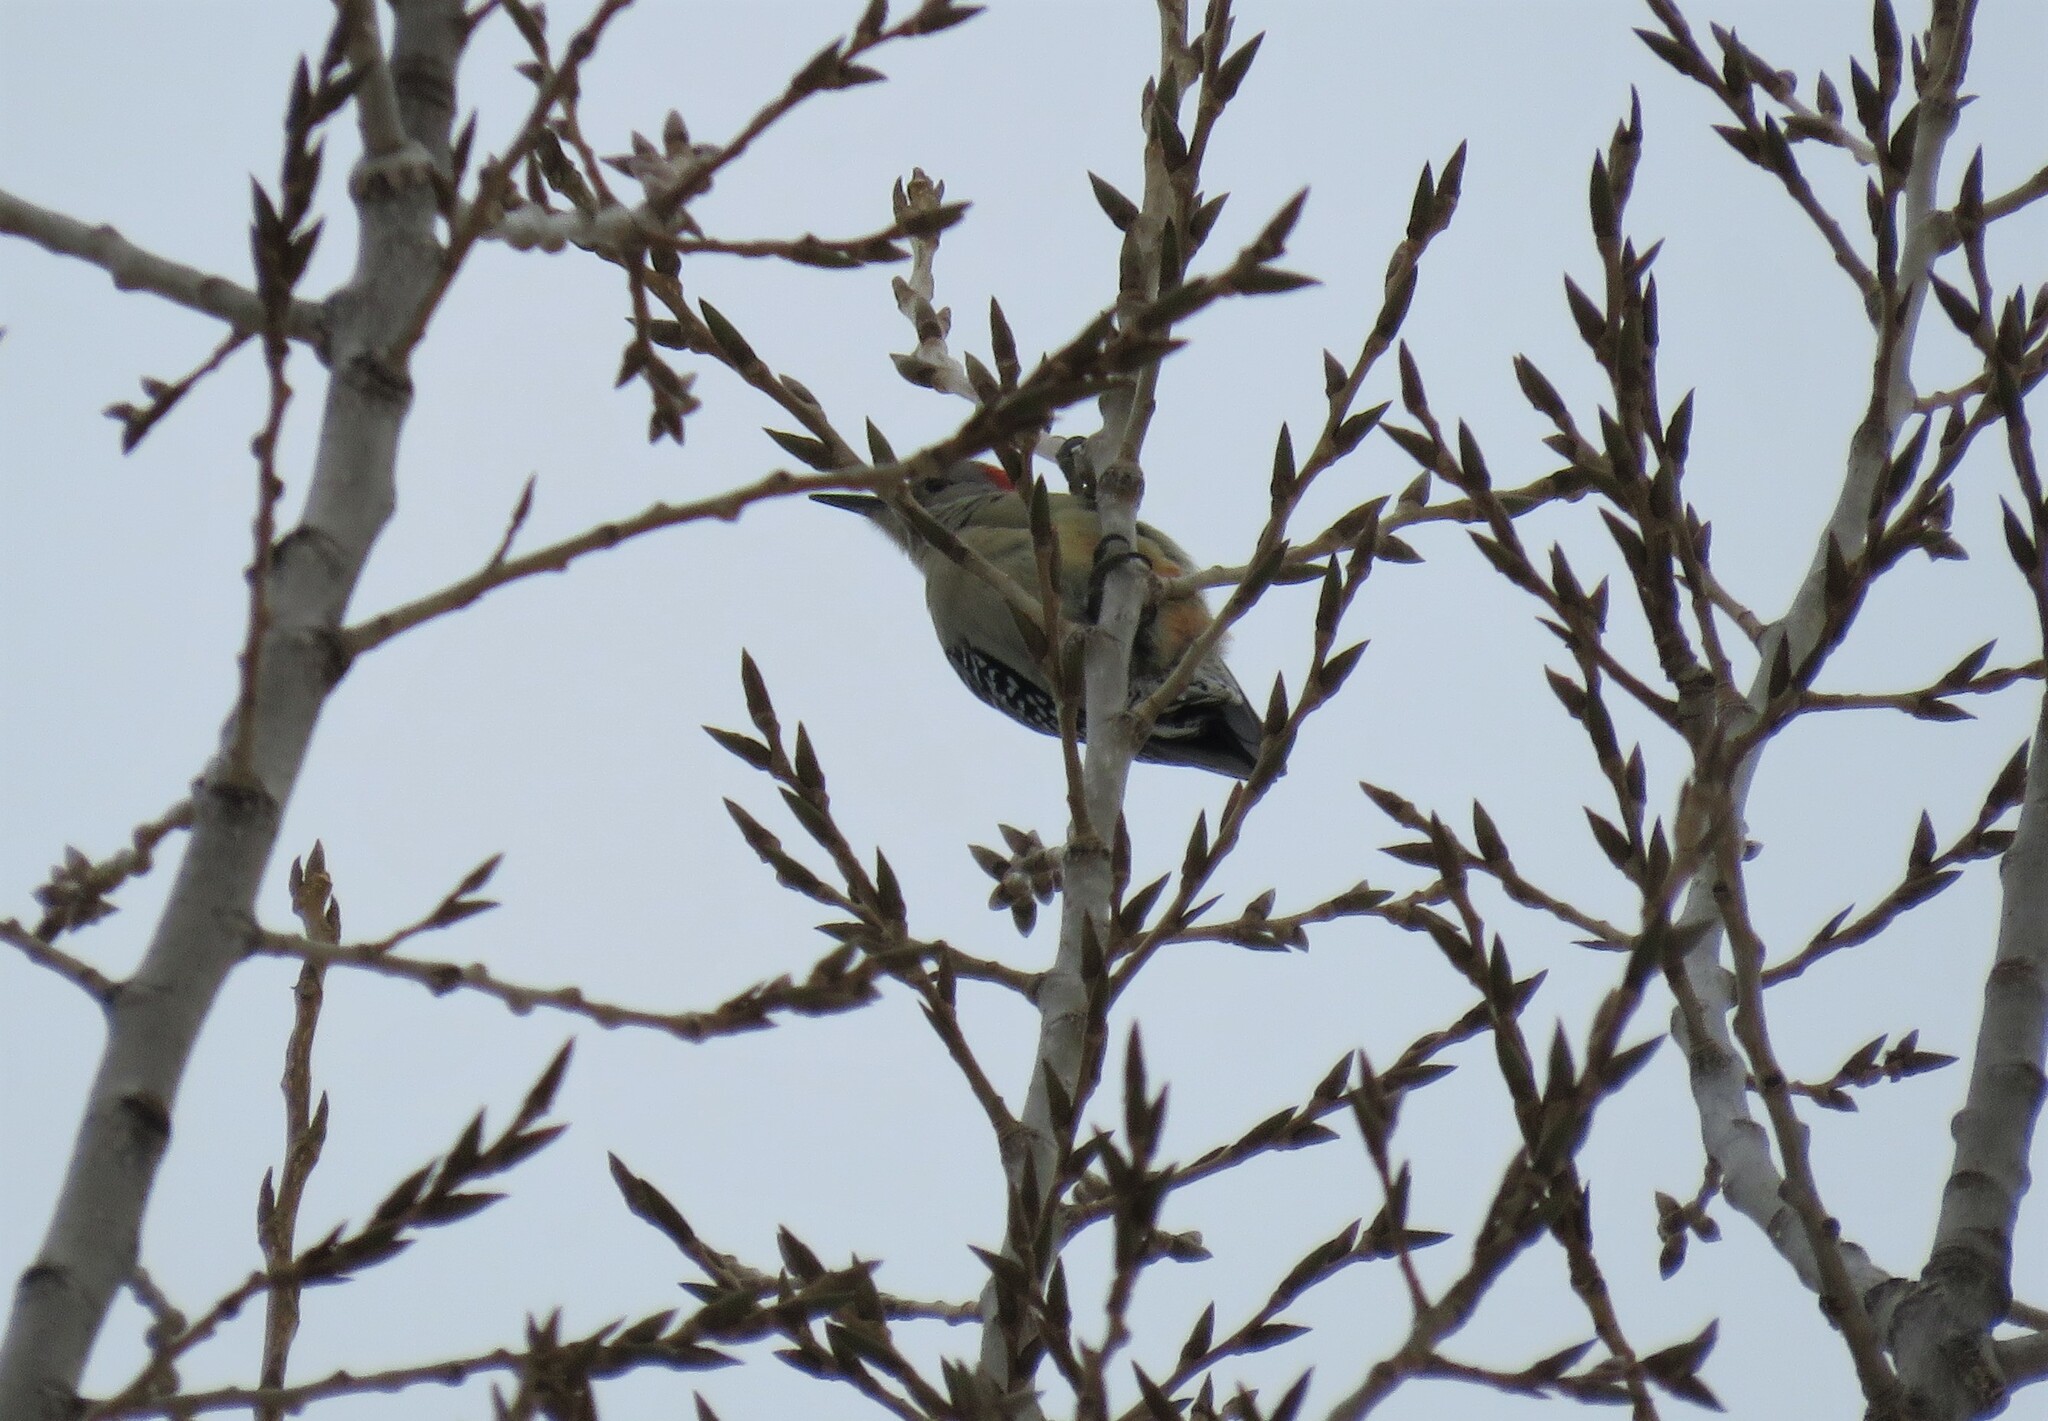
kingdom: Animalia
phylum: Chordata
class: Aves
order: Piciformes
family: Picidae
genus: Melanerpes
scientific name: Melanerpes carolinus
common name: Red-bellied woodpecker
